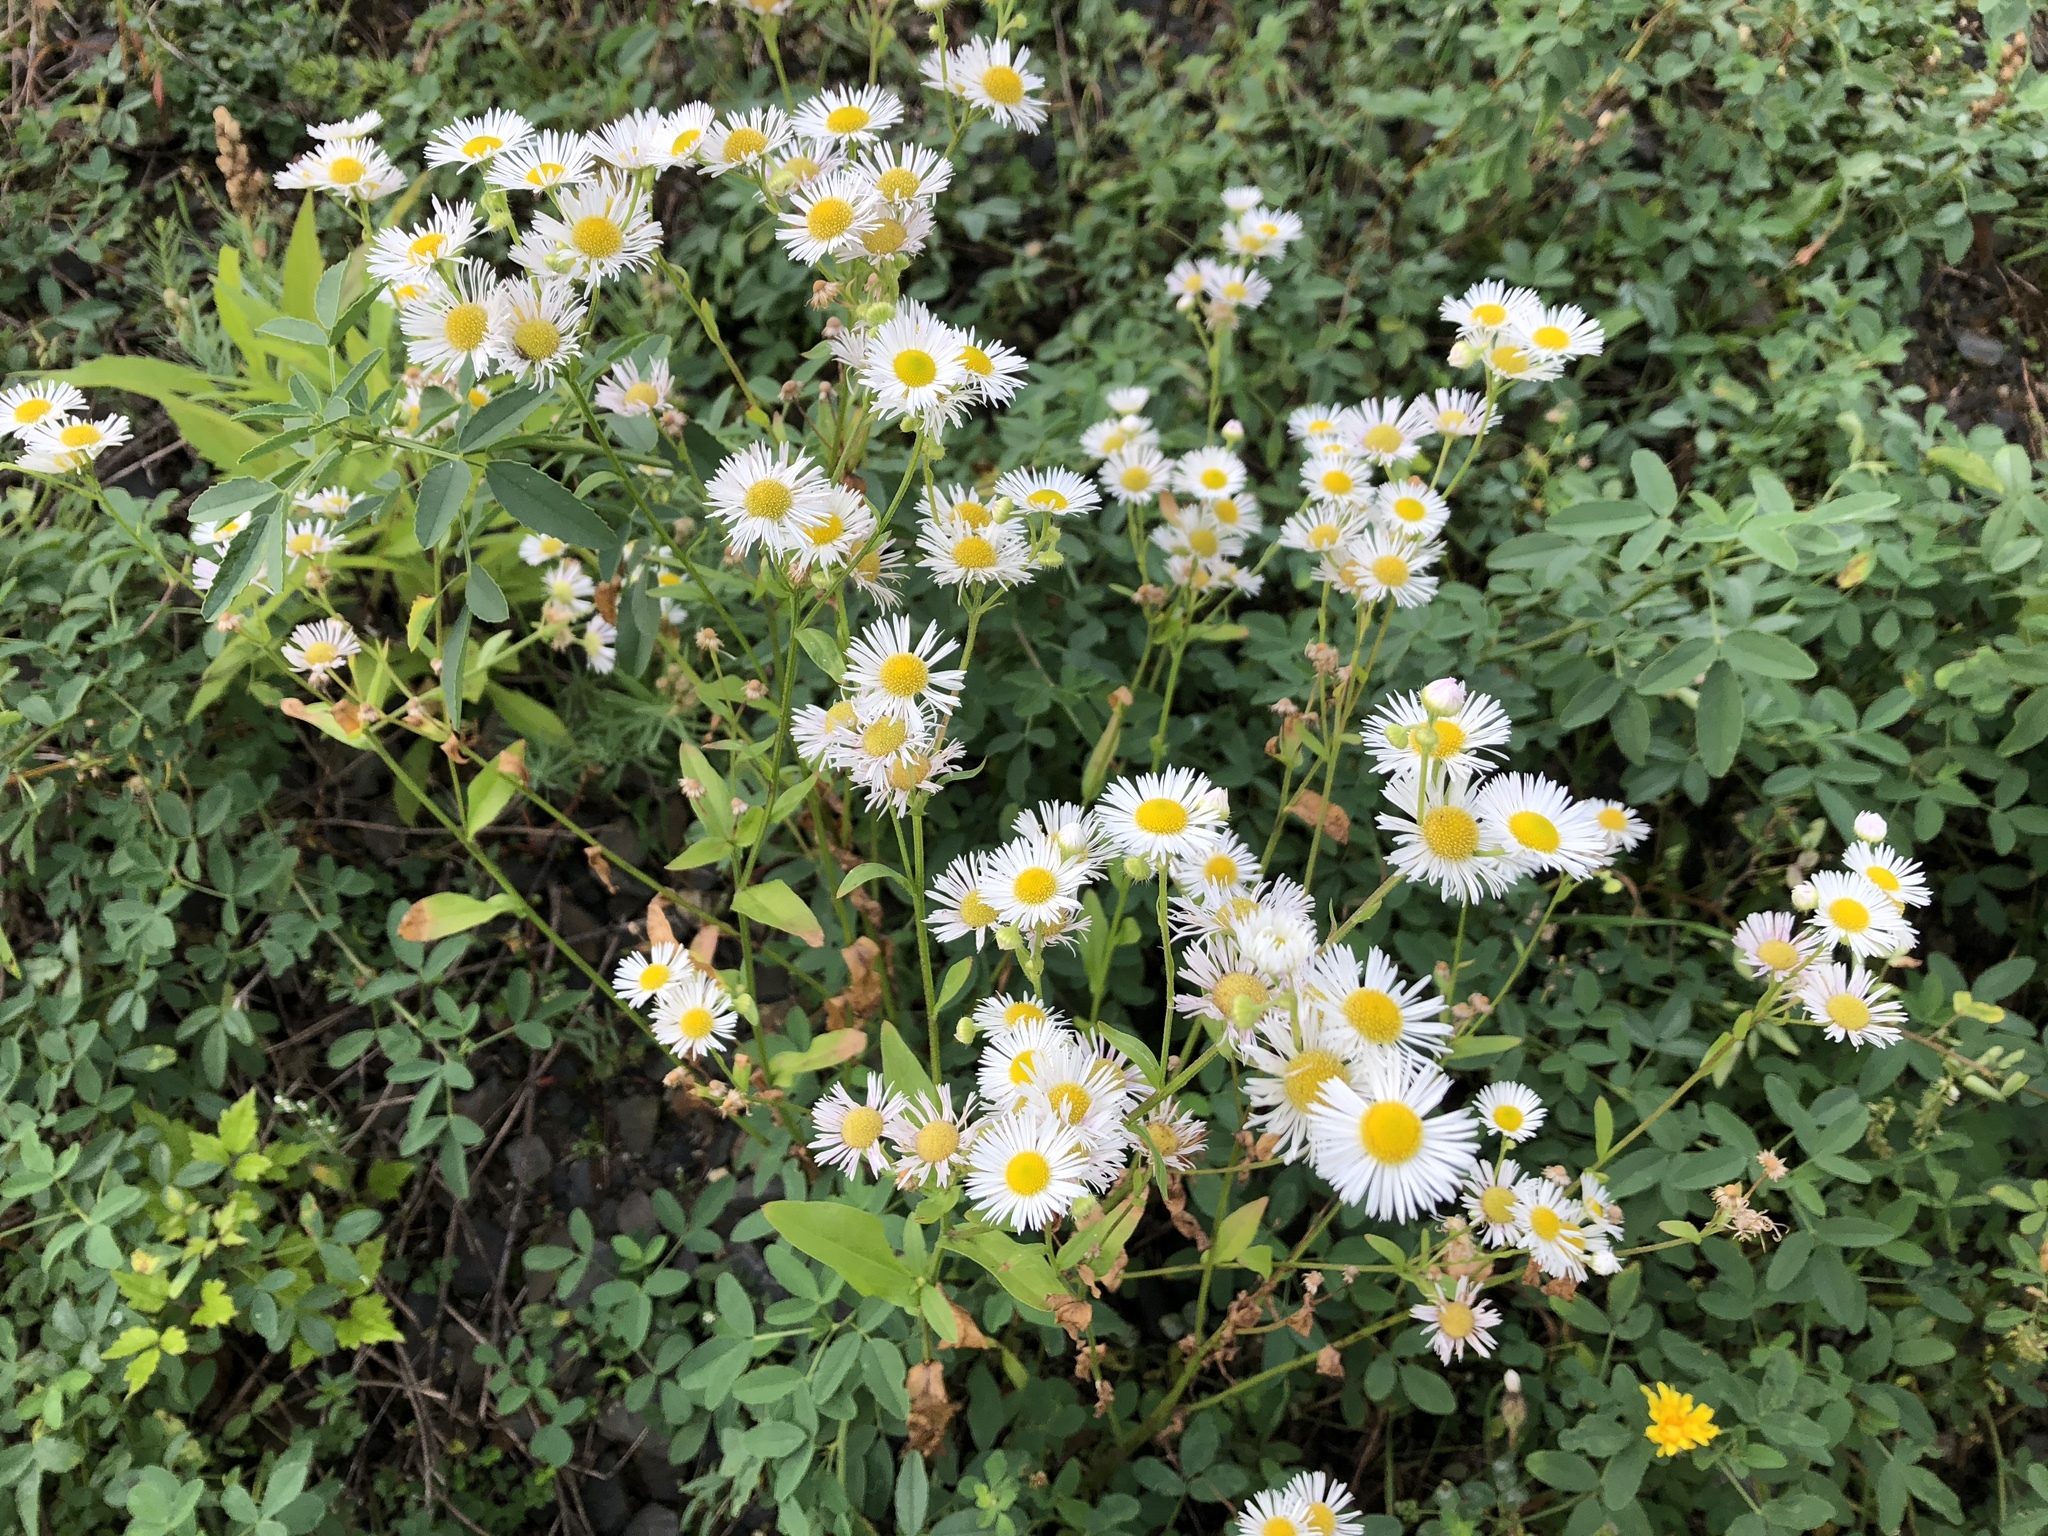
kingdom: Plantae
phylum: Tracheophyta
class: Magnoliopsida
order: Asterales
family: Asteraceae
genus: Erigeron
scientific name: Erigeron annuus
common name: Tall fleabane
